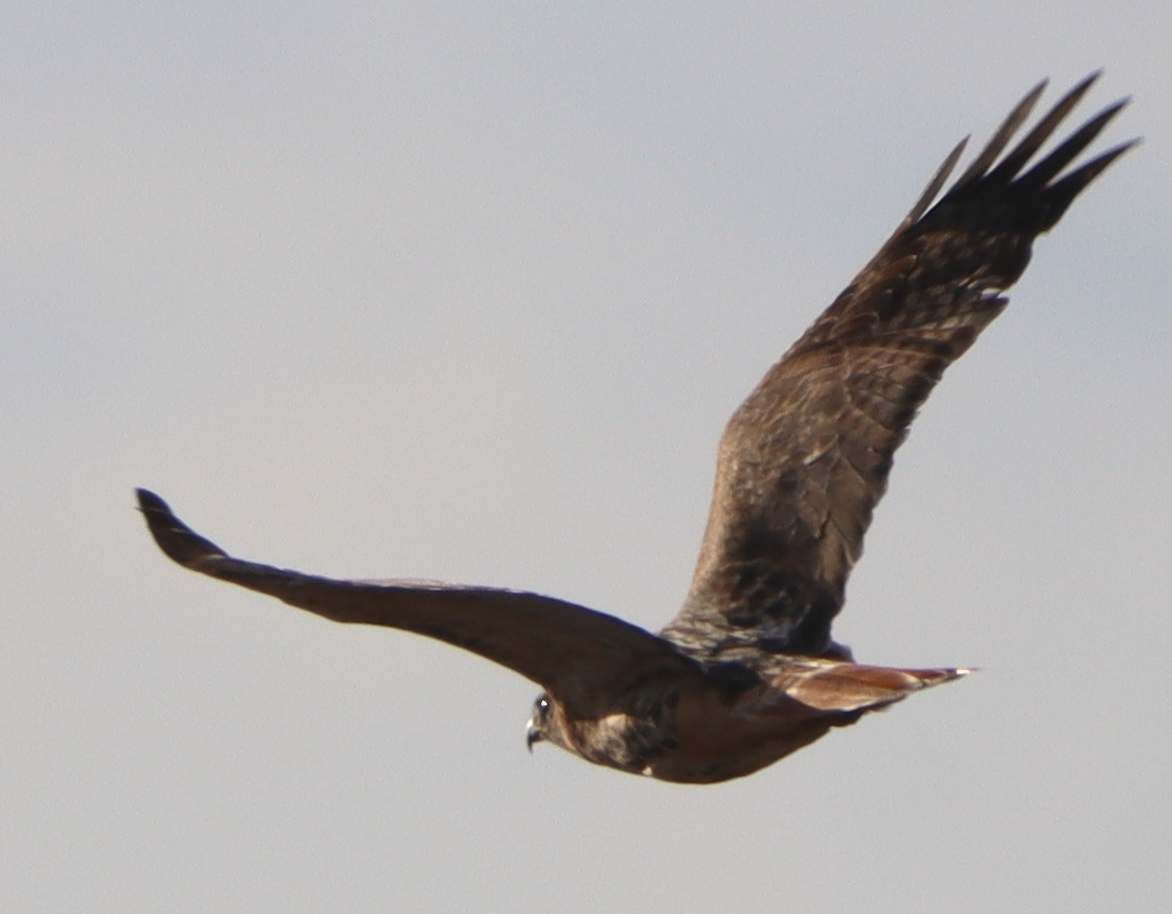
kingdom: Animalia
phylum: Chordata
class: Aves
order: Accipitriformes
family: Accipitridae
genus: Buteo
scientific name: Buteo jamaicensis
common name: Red-tailed hawk
